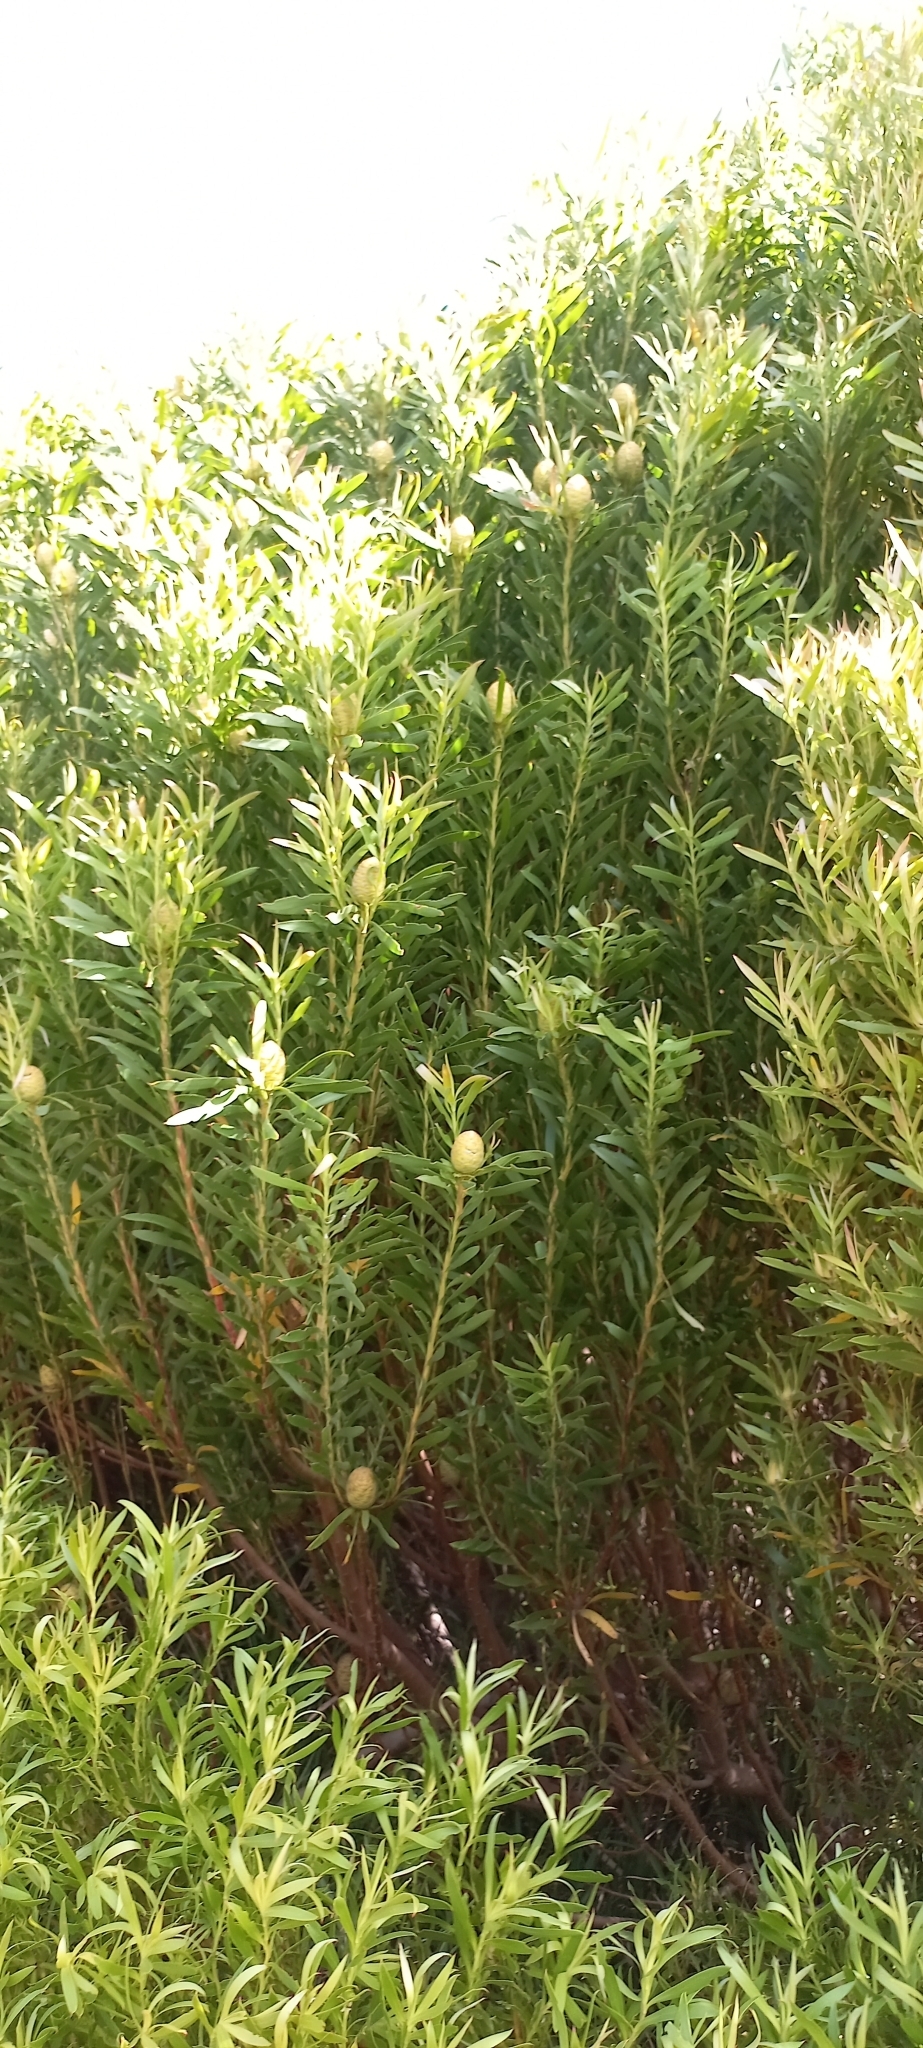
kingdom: Plantae
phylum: Tracheophyta
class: Magnoliopsida
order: Proteales
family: Proteaceae
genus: Leucadendron
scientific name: Leucadendron coniferum
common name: Dune conebush
